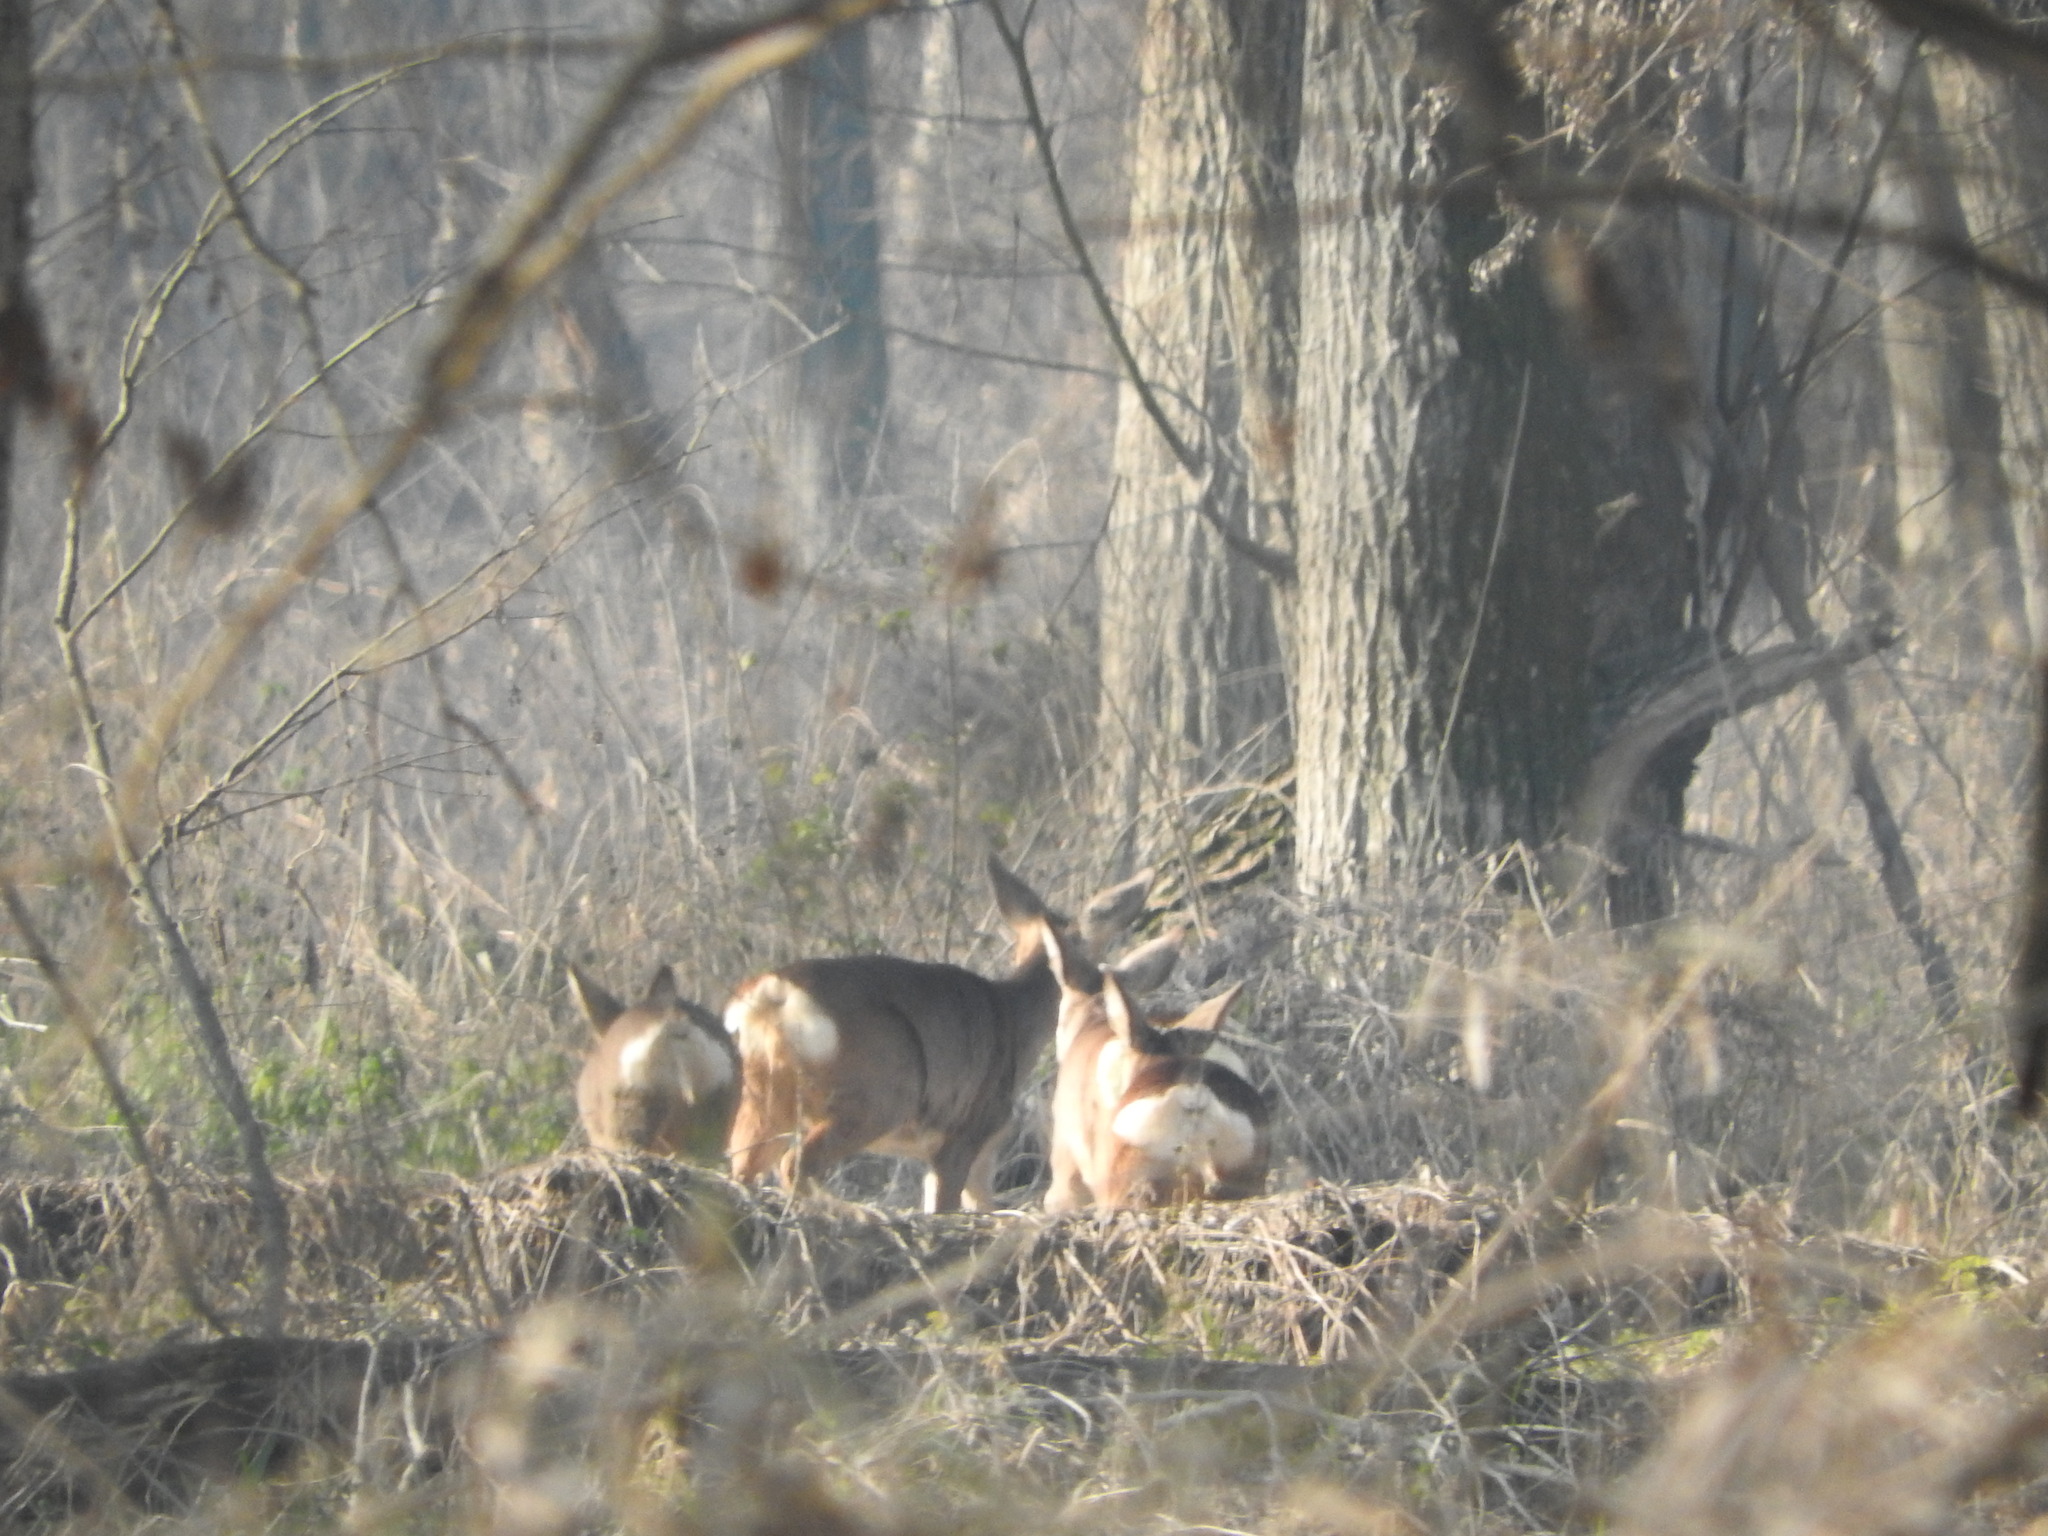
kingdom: Animalia
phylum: Chordata
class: Mammalia
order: Artiodactyla
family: Cervidae
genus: Capreolus
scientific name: Capreolus capreolus
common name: Western roe deer
